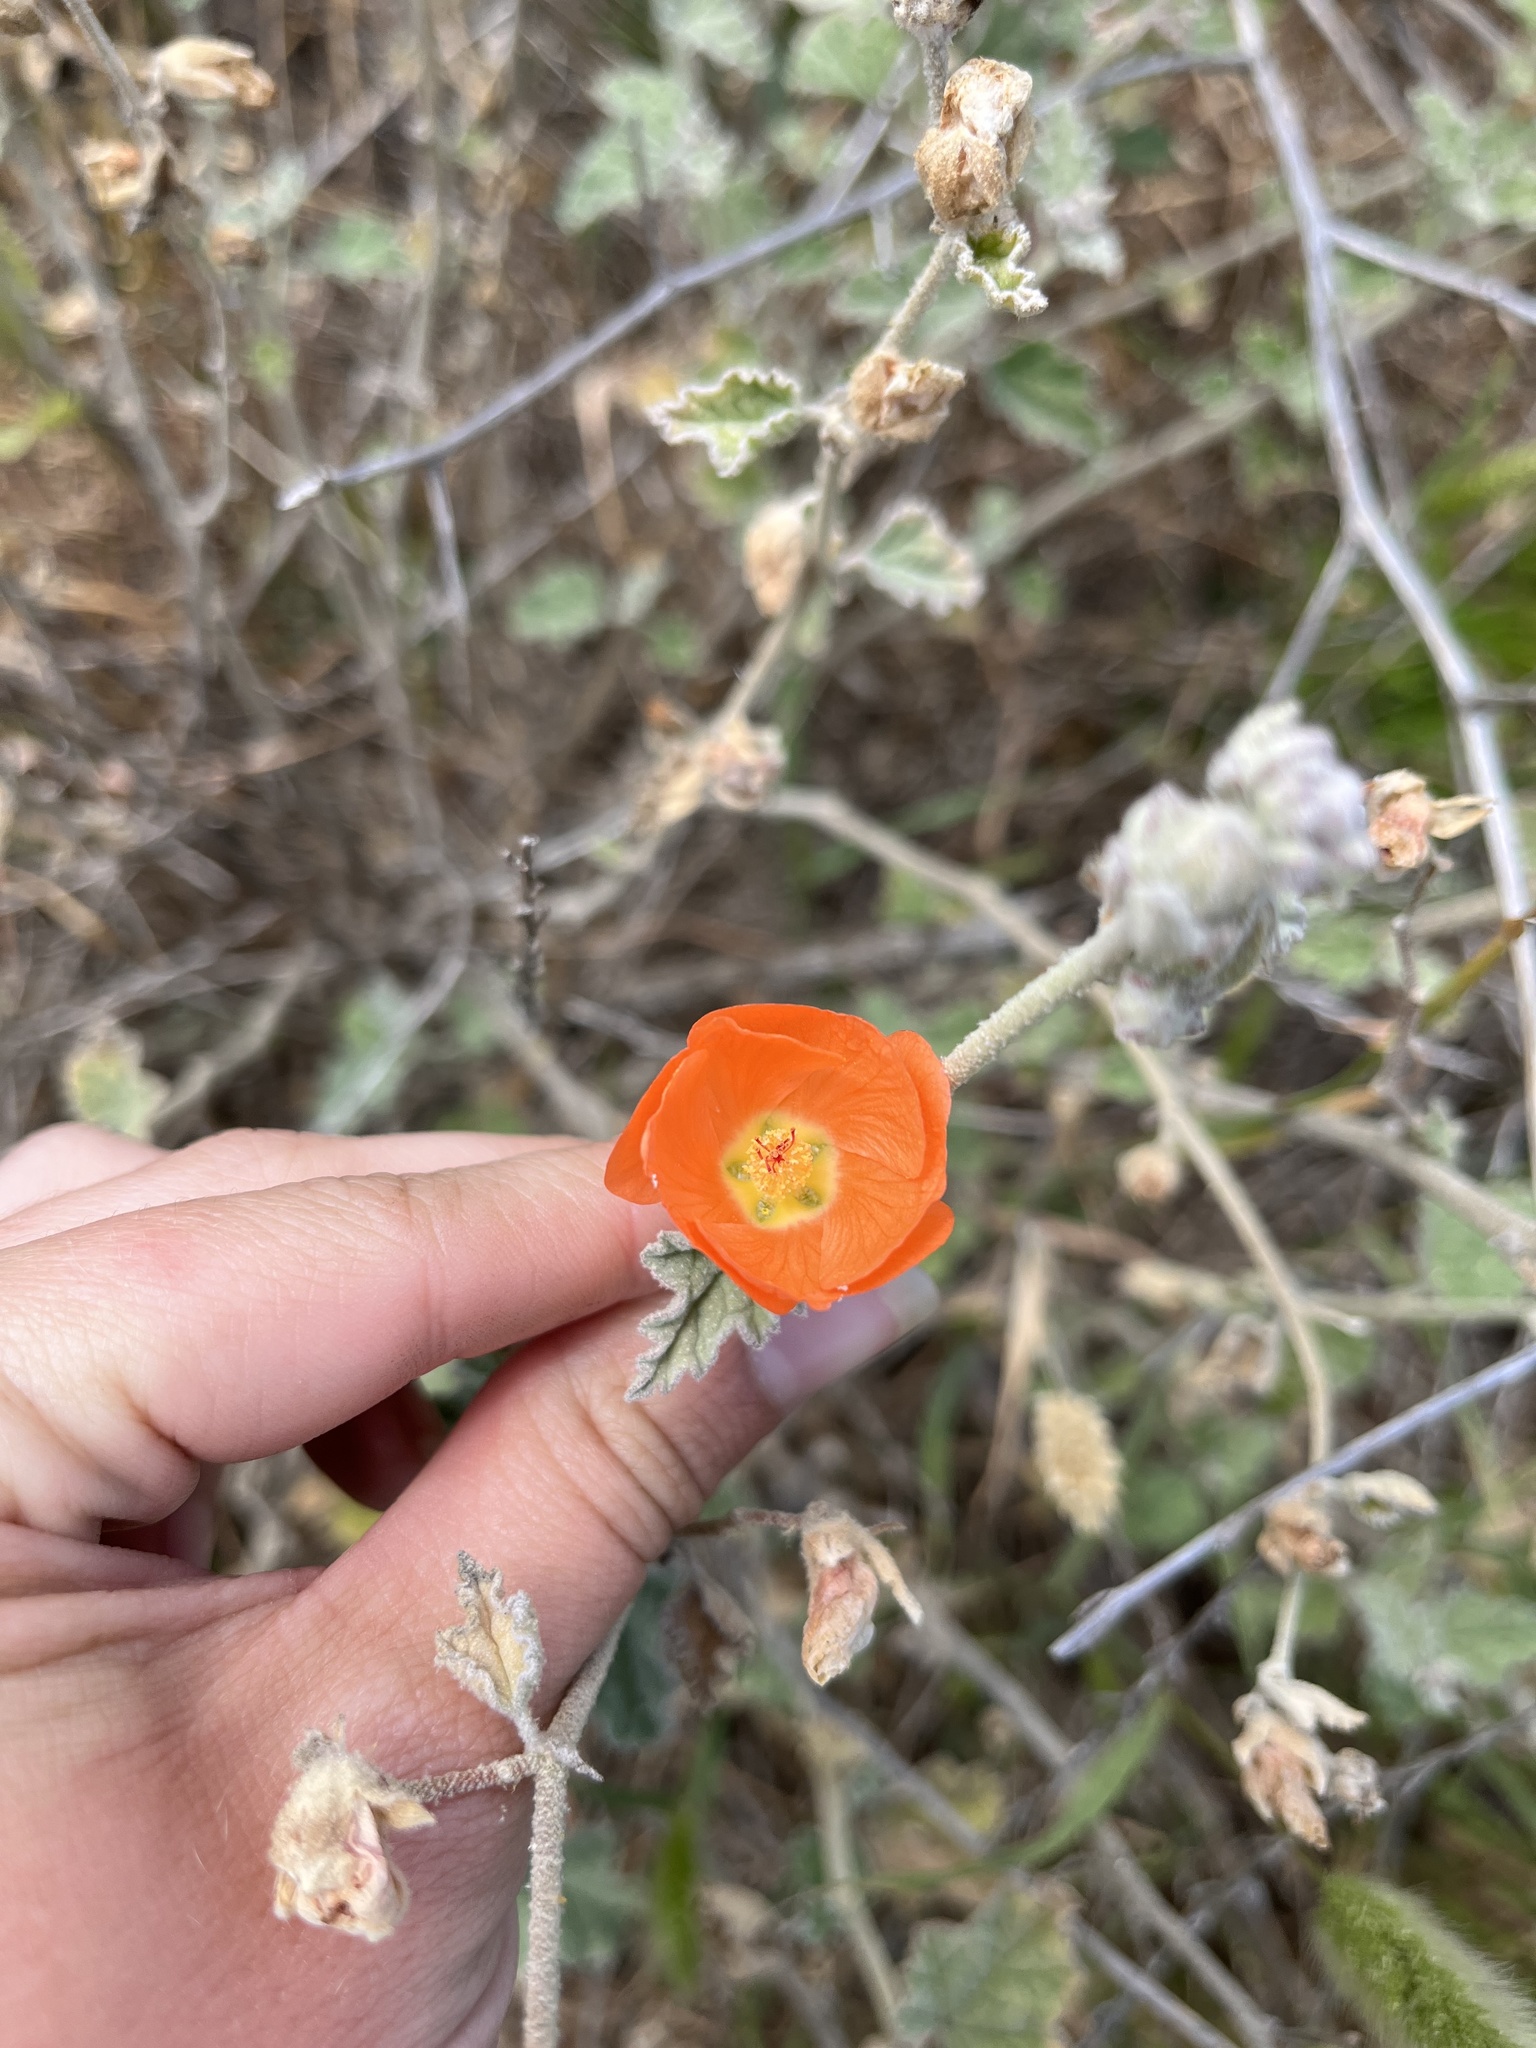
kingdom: Plantae
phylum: Tracheophyta
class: Magnoliopsida
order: Malvales
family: Malvaceae
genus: Sphaeralcea
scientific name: Sphaeralcea ambigua
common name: Apricot globe-mallow
